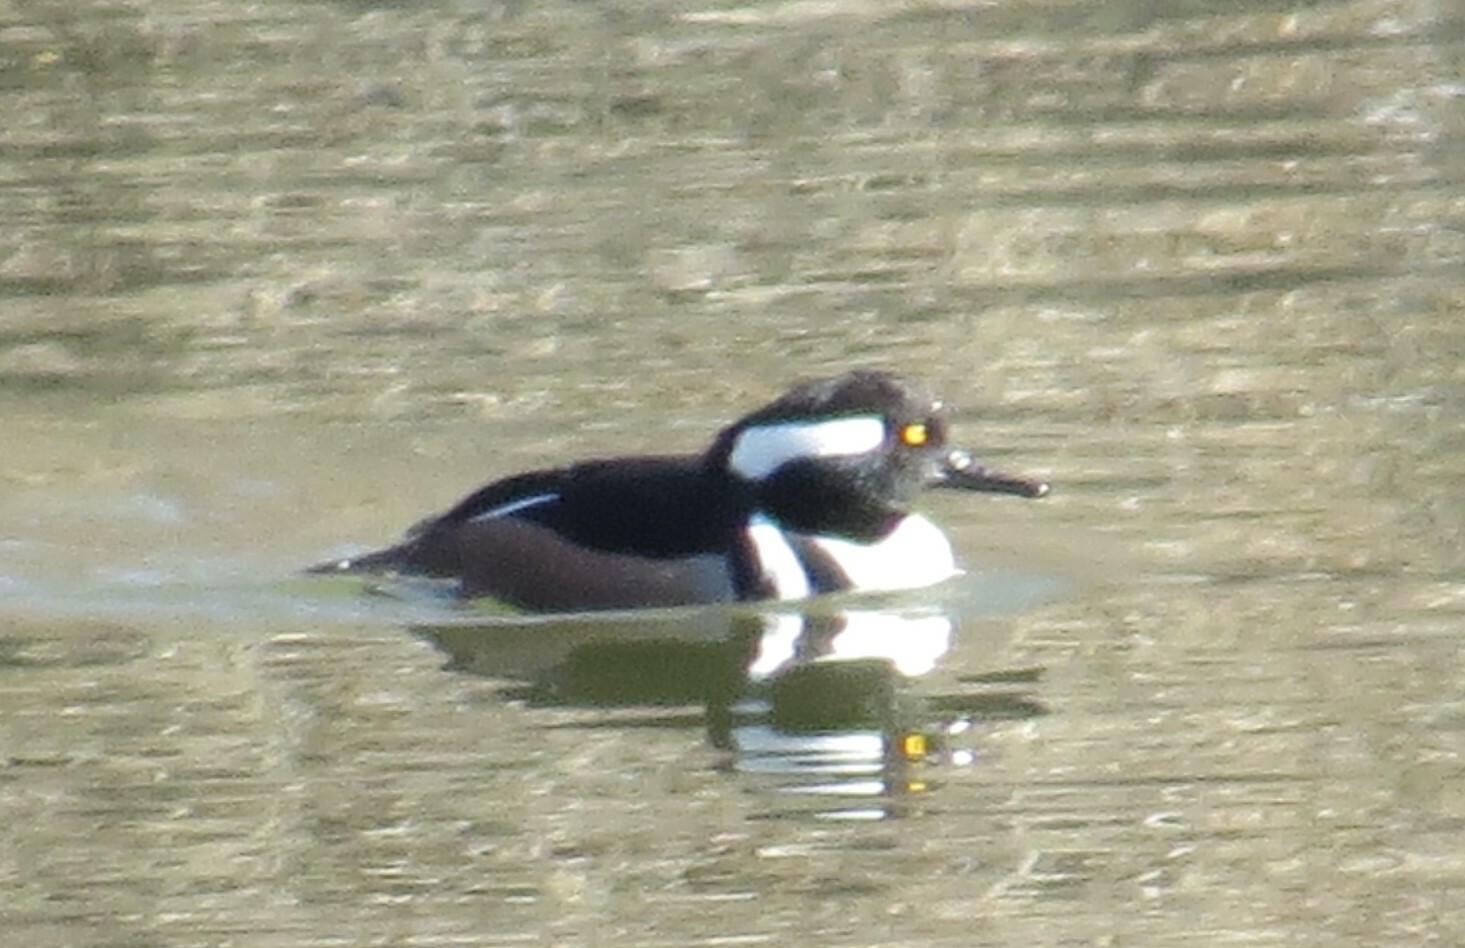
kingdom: Animalia
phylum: Chordata
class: Aves
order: Anseriformes
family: Anatidae
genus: Lophodytes
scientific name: Lophodytes cucullatus
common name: Hooded merganser
